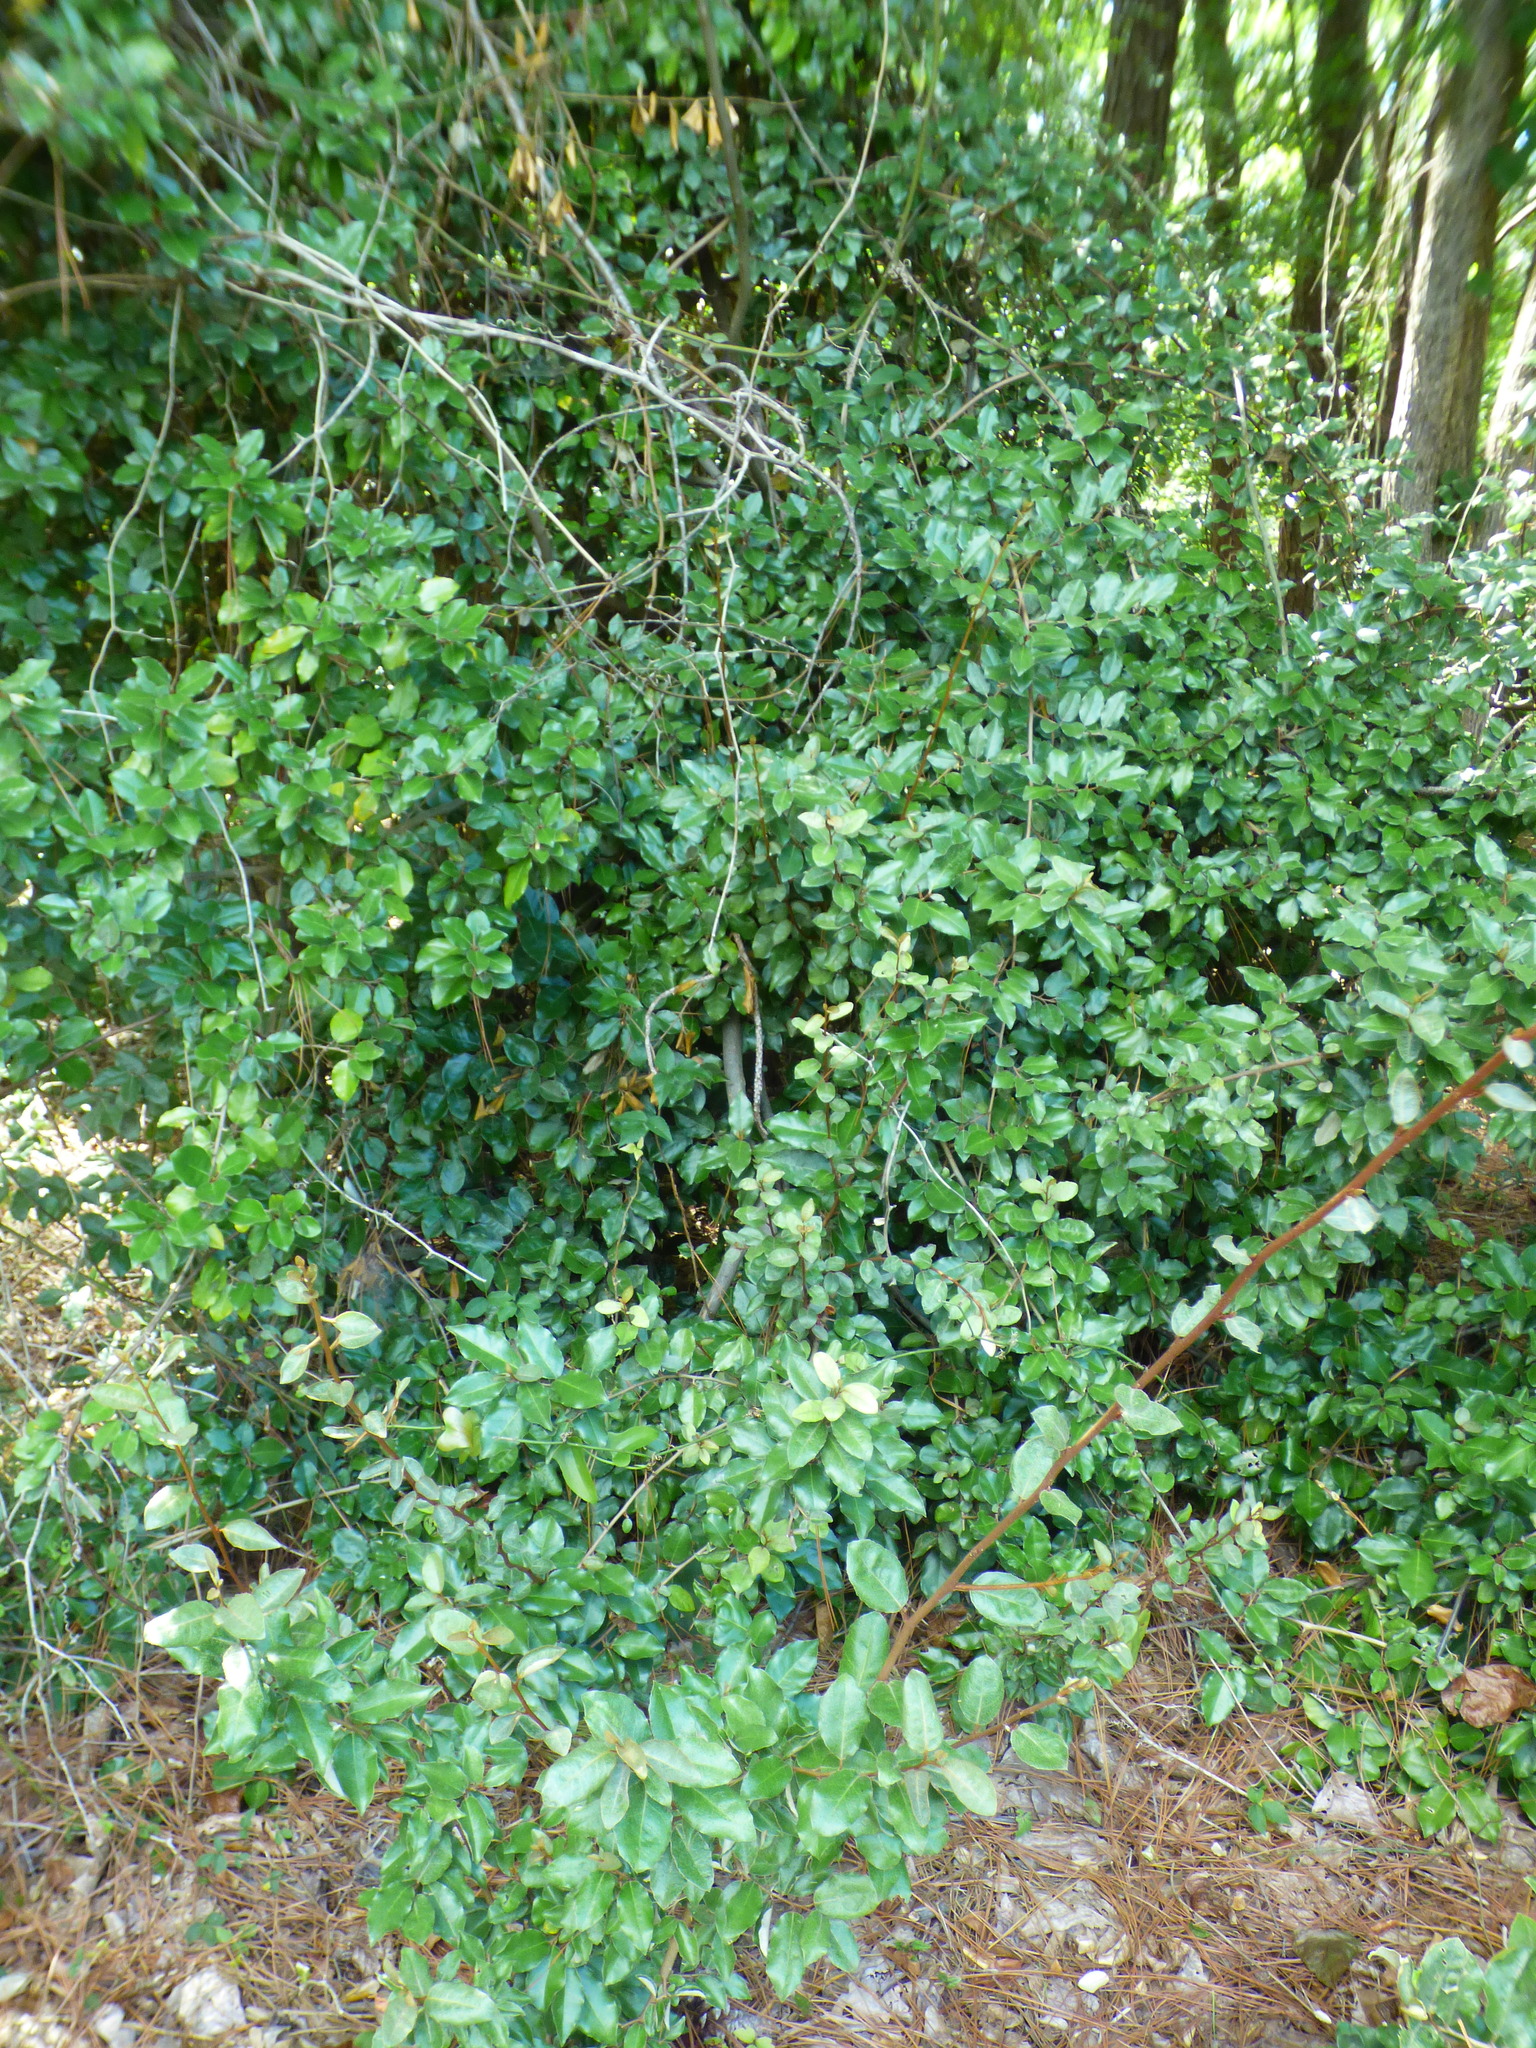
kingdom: Plantae
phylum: Tracheophyta
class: Magnoliopsida
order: Rosales
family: Elaeagnaceae
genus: Elaeagnus
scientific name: Elaeagnus pungens
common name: Spiny oleaster
